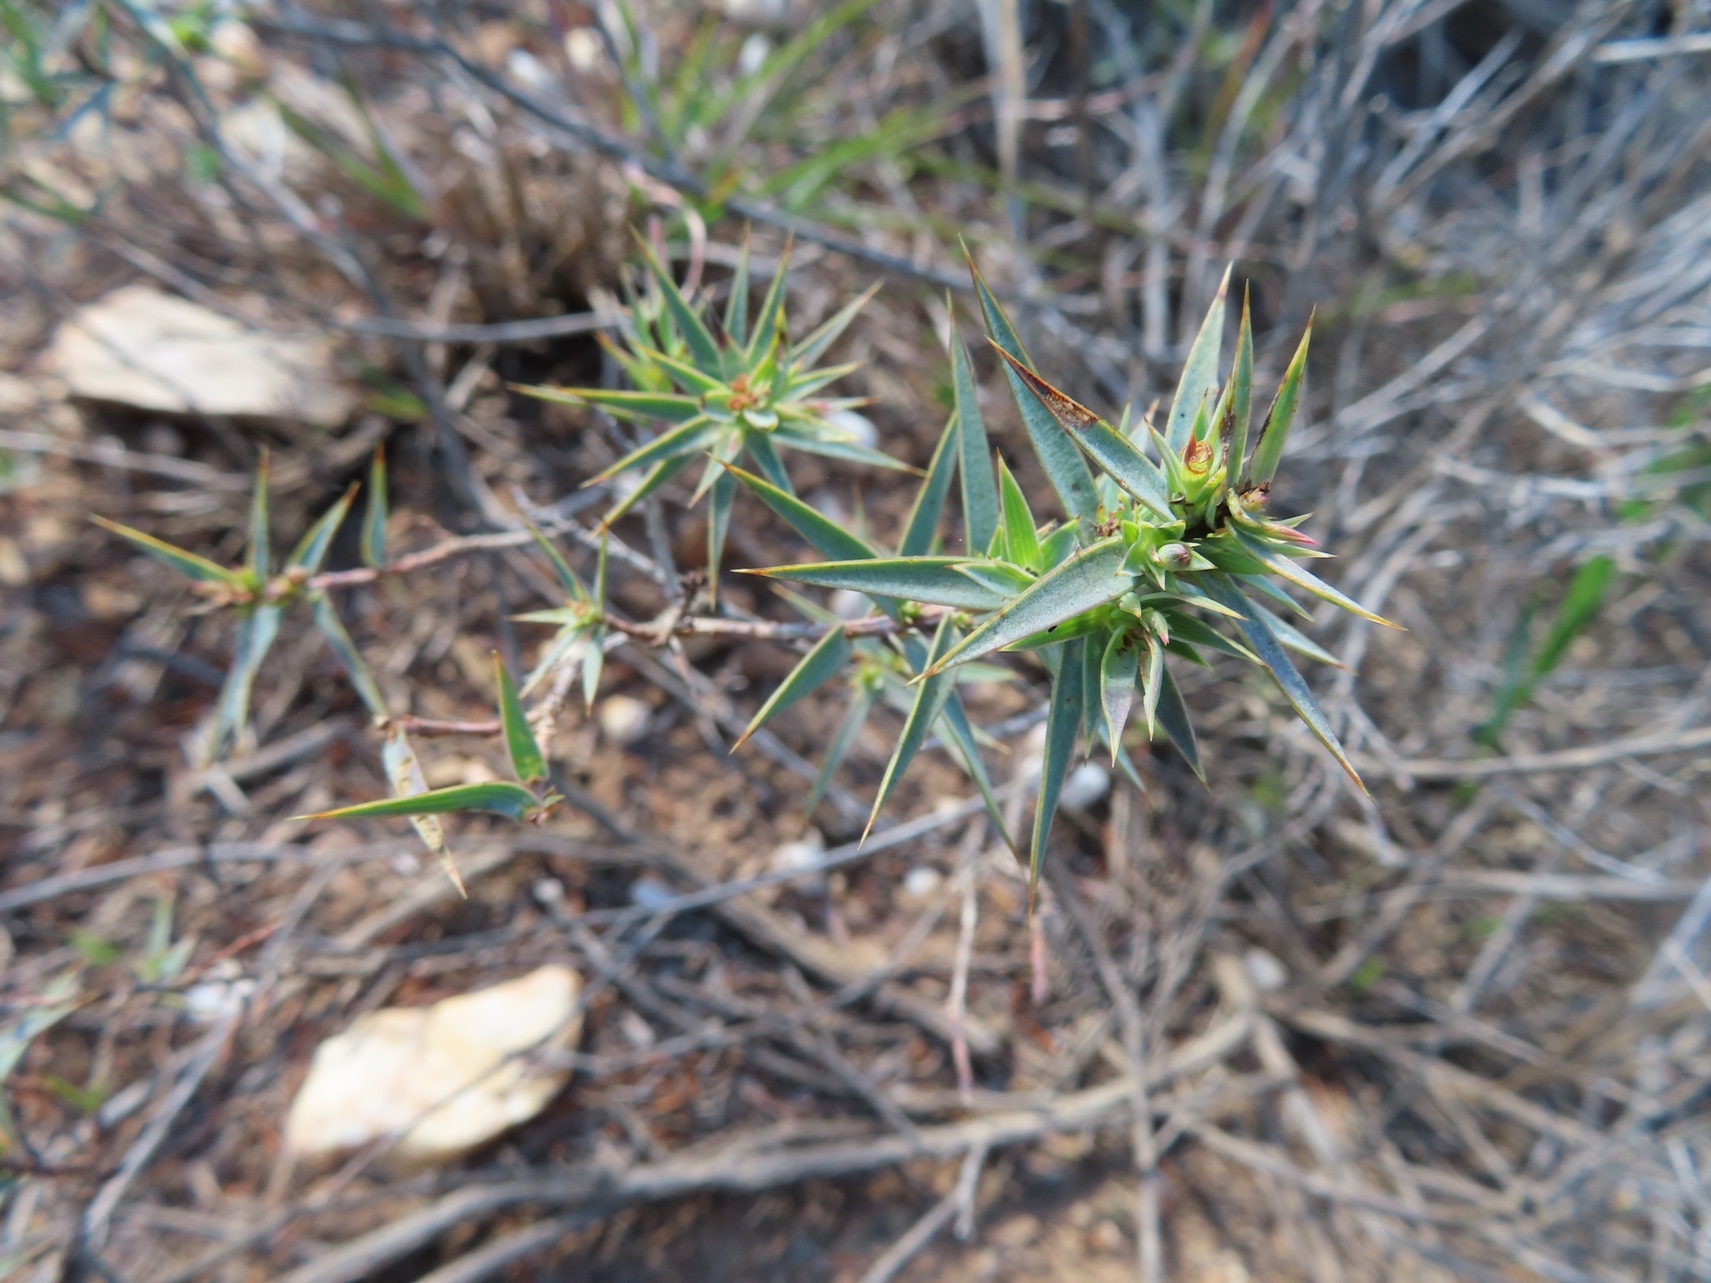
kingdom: Plantae
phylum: Tracheophyta
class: Magnoliopsida
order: Fabales
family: Fabaceae
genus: Aspalathus
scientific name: Aspalathus alpestris
